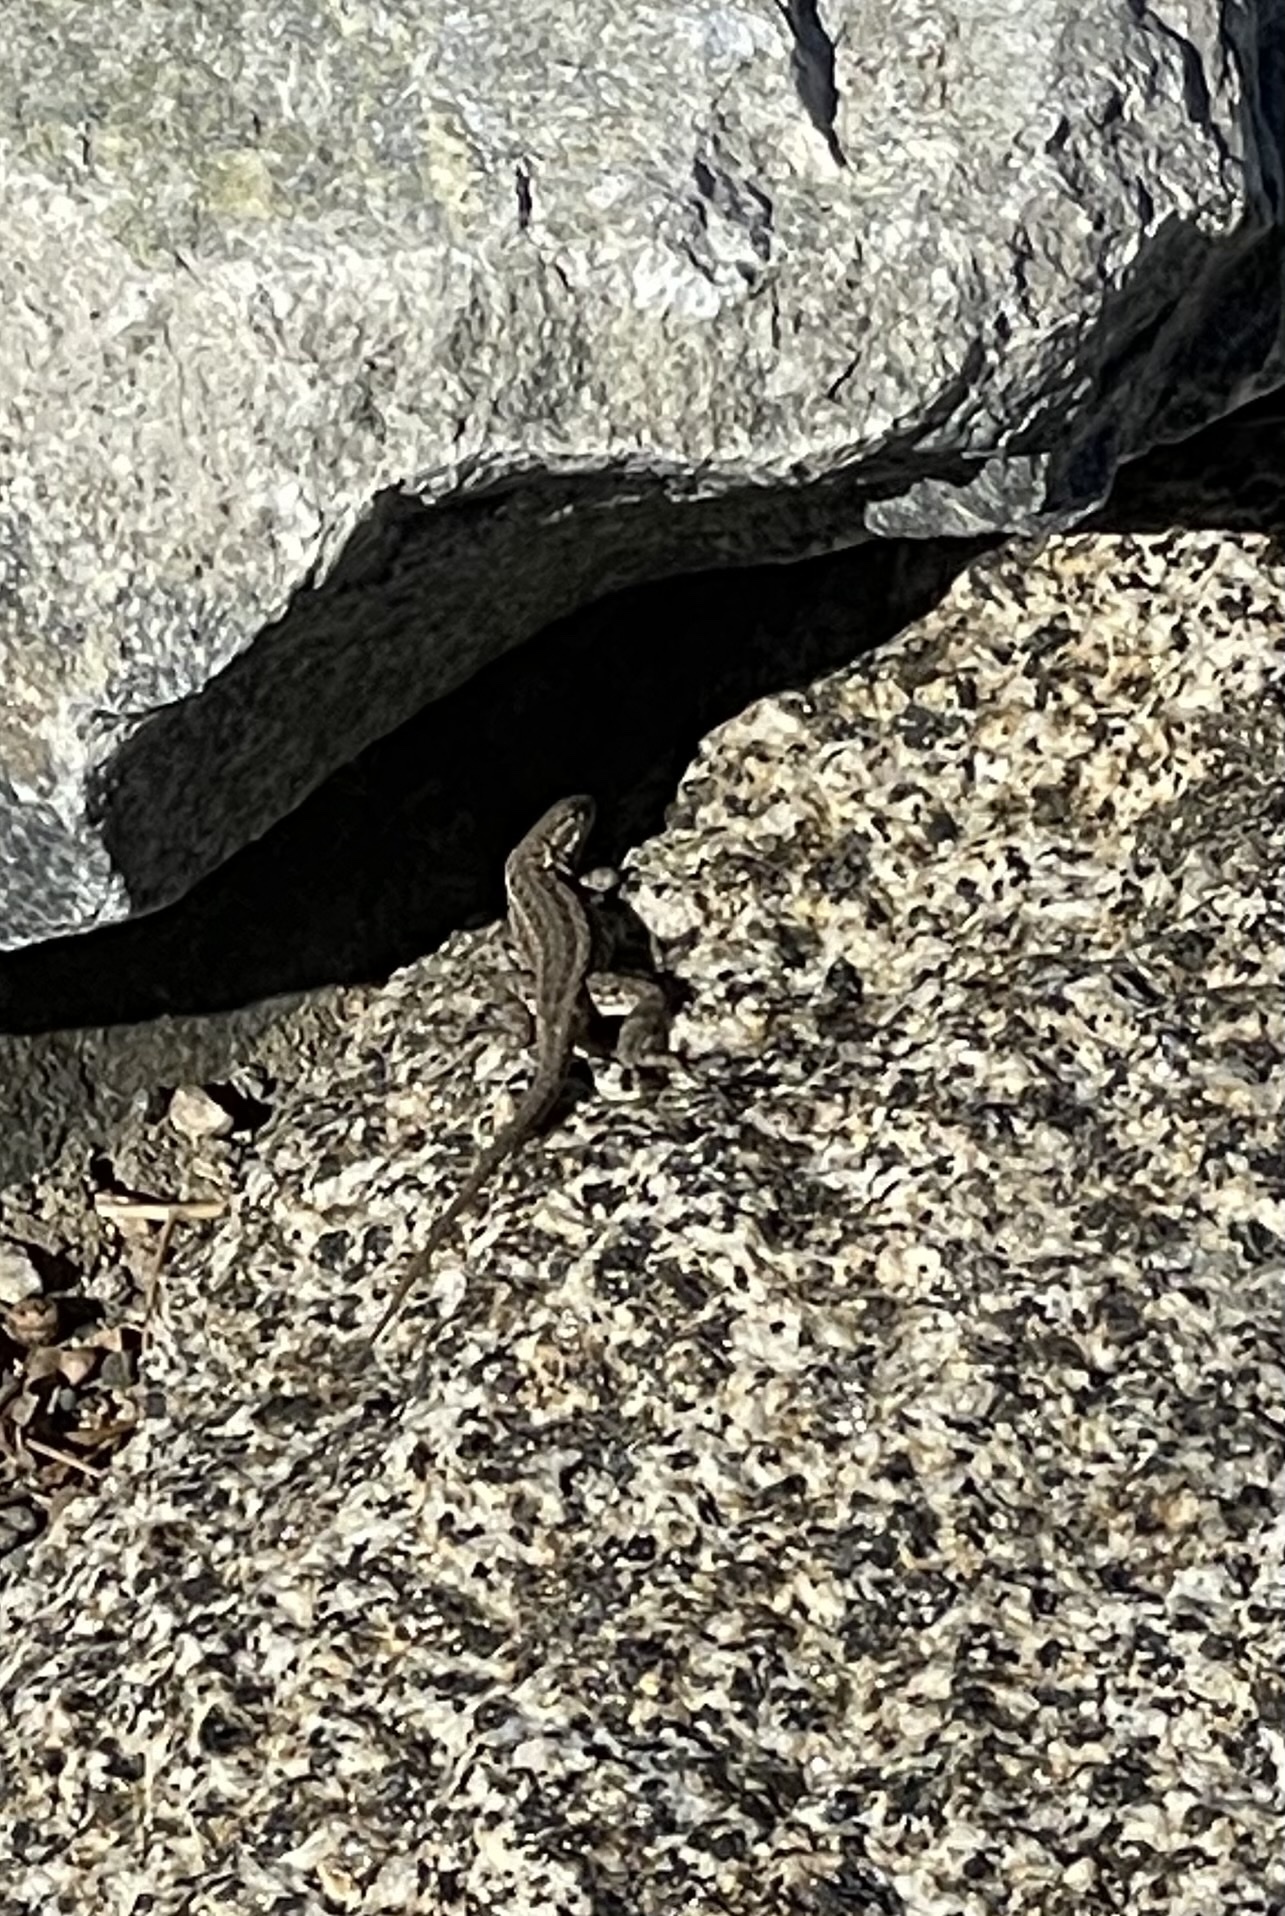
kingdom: Animalia
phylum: Chordata
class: Squamata
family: Phrynosomatidae
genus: Uta
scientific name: Uta stansburiana
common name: Side-blotched lizard
